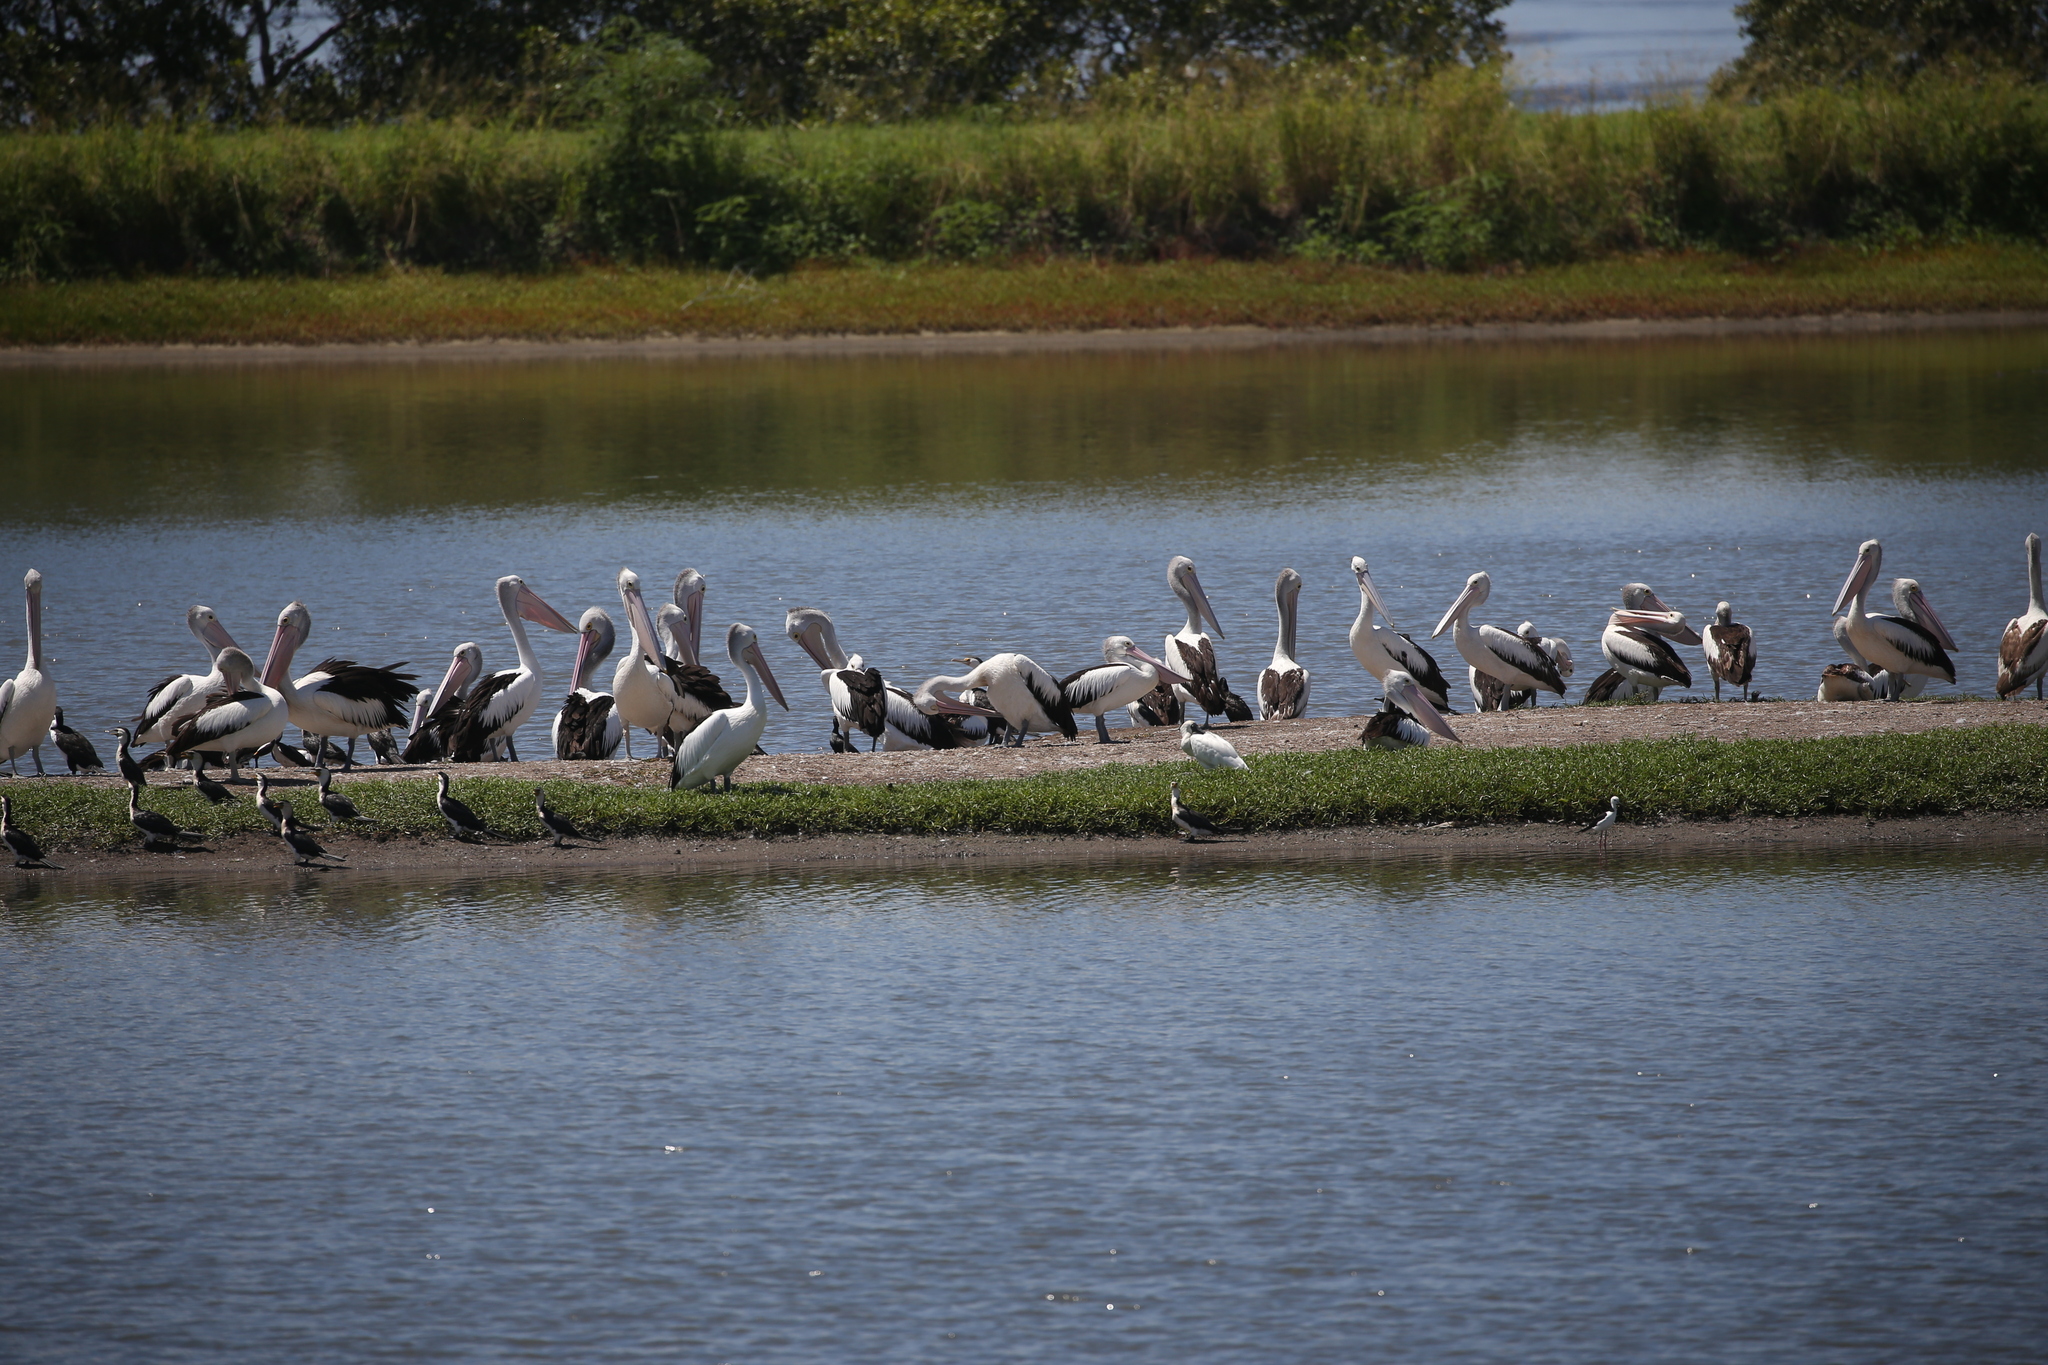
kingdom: Animalia
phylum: Chordata
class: Aves
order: Pelecaniformes
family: Pelecanidae
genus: Pelecanus
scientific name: Pelecanus conspicillatus
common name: Australian pelican
